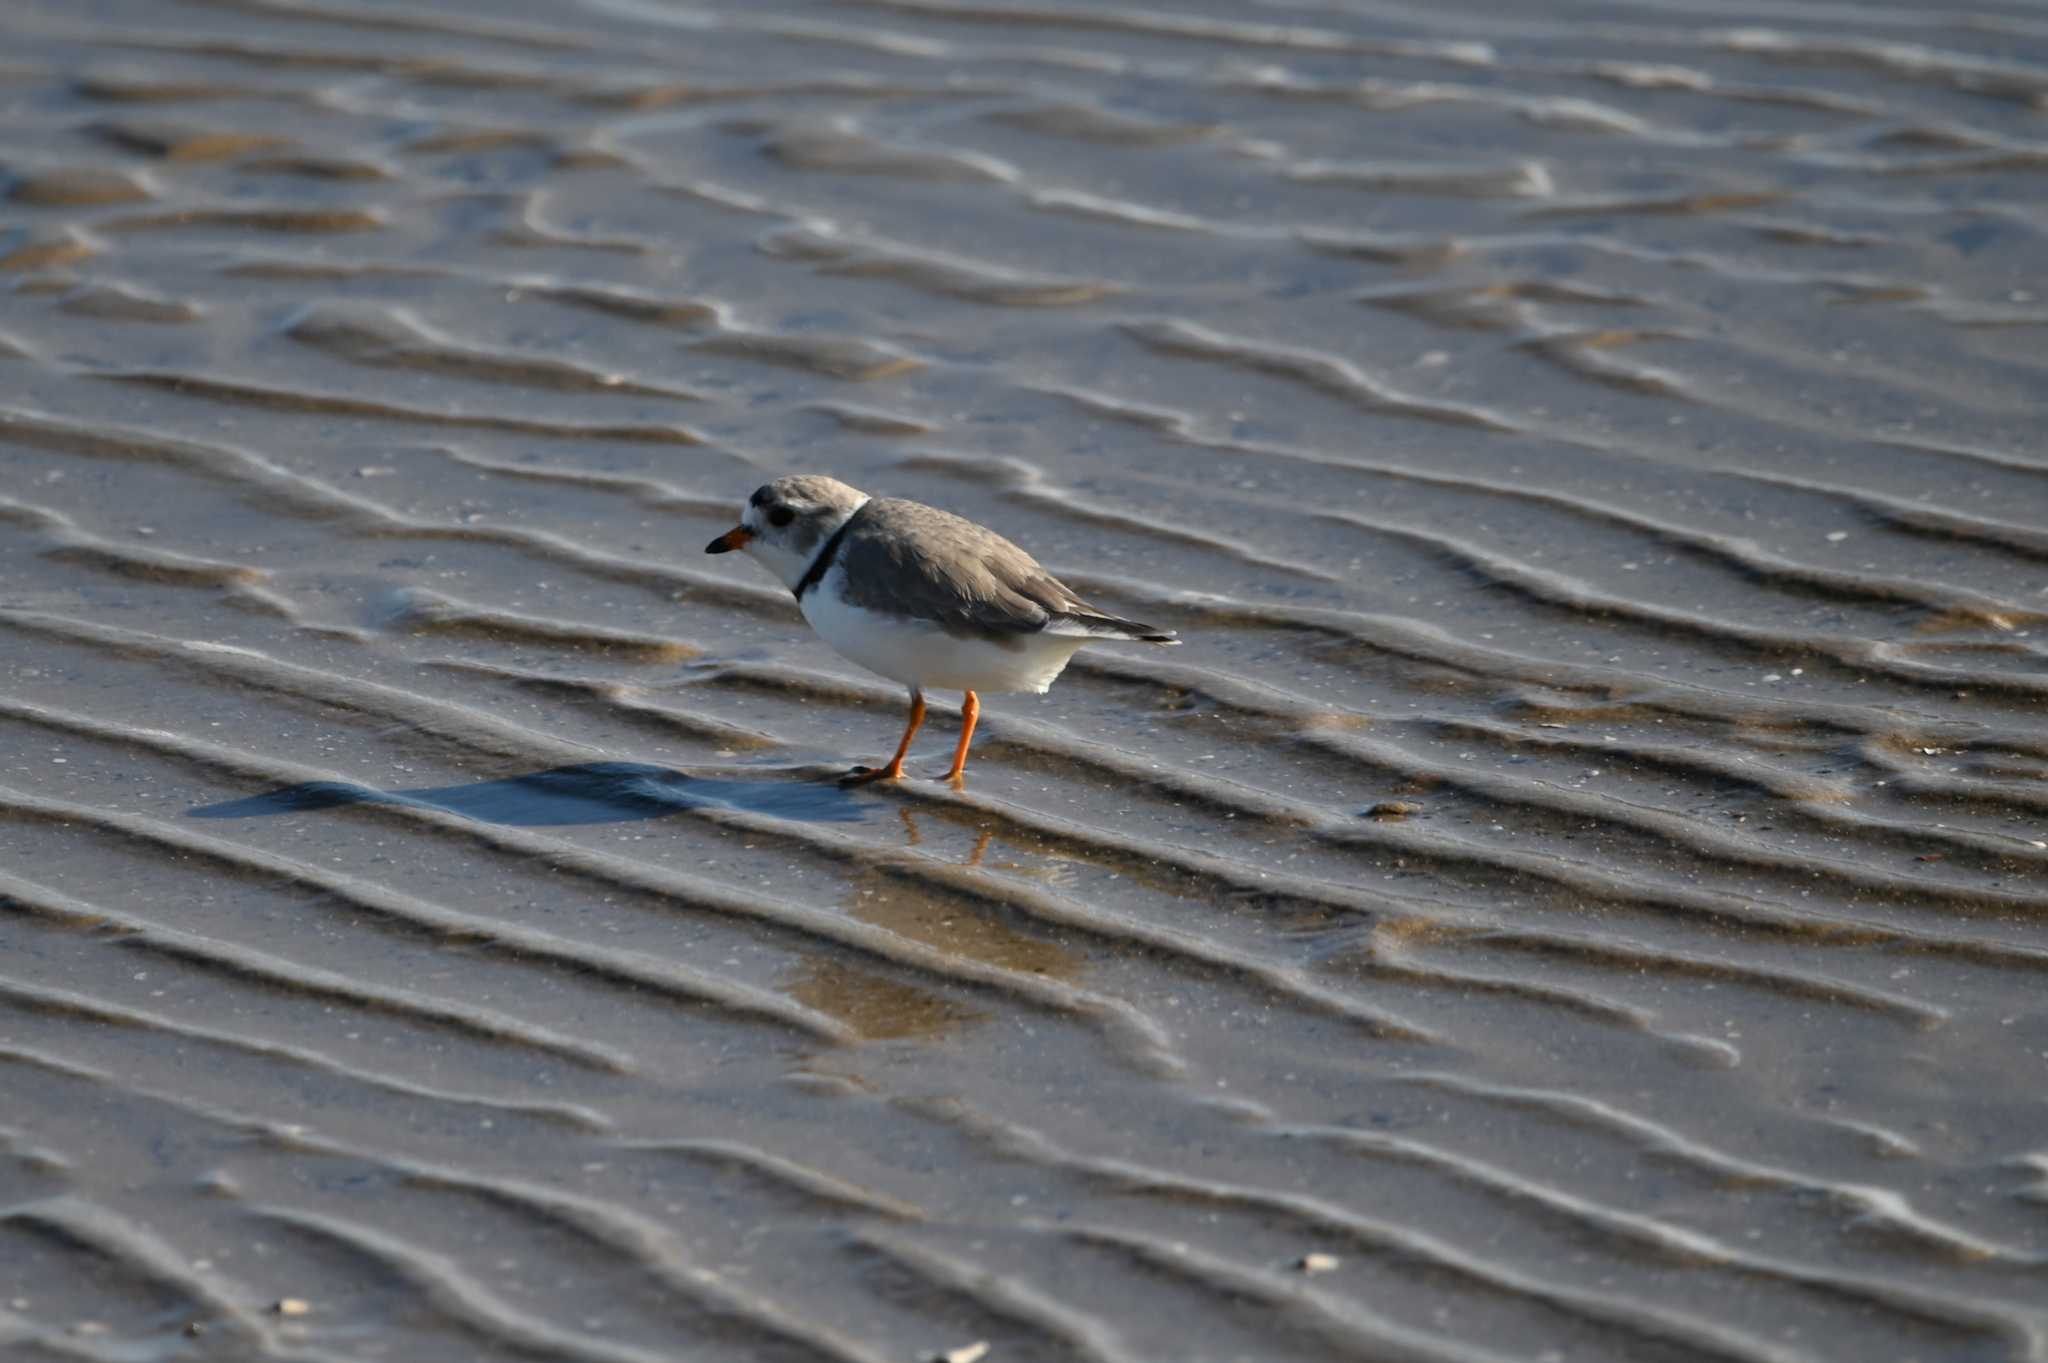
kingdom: Animalia
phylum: Chordata
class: Aves
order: Charadriiformes
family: Charadriidae
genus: Charadrius
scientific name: Charadrius melodus
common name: Piping plover
